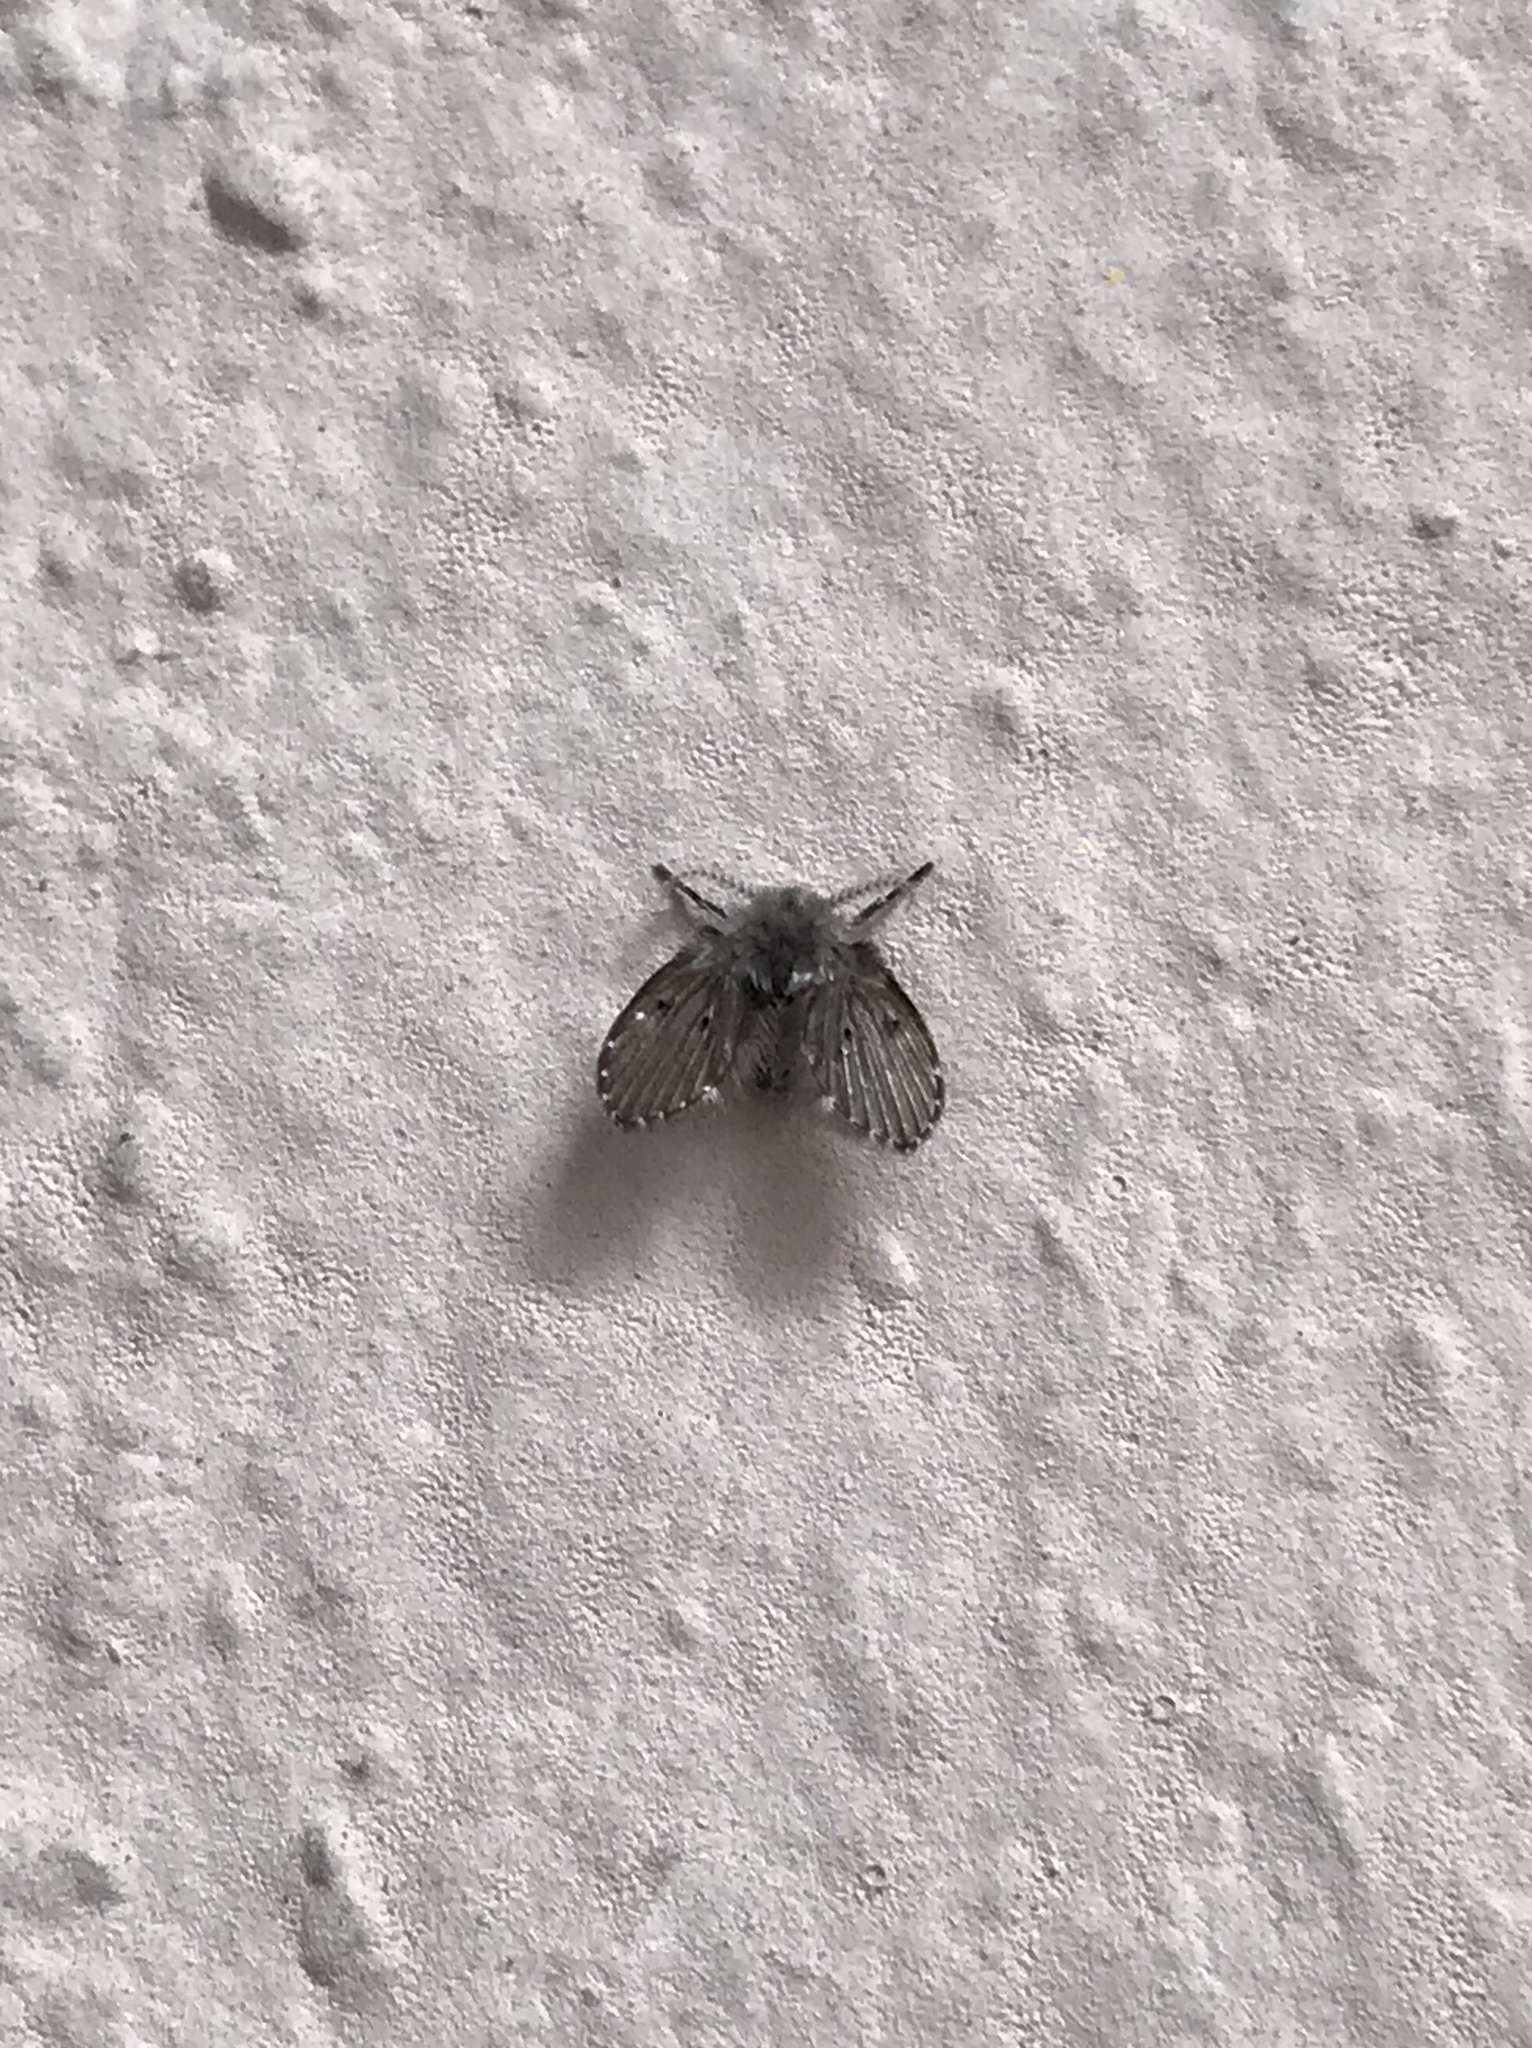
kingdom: Animalia
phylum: Arthropoda
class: Insecta
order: Diptera
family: Psychodidae
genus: Clogmia
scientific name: Clogmia albipunctatus
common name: White-spotted moth fly
